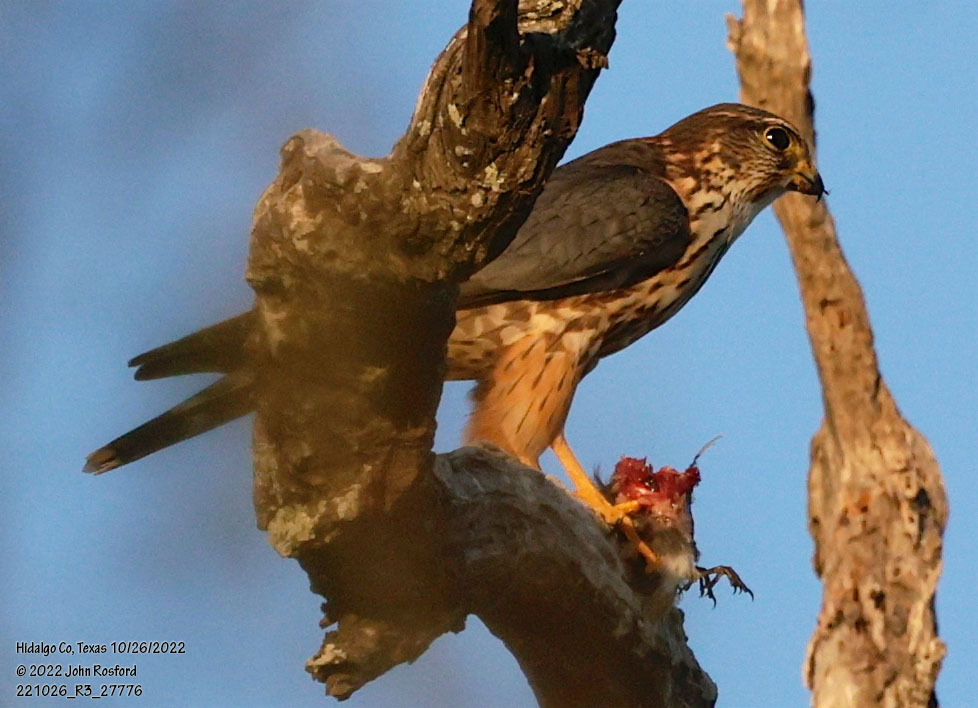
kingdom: Animalia
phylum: Chordata
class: Aves
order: Falconiformes
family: Falconidae
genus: Falco
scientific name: Falco columbarius
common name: Merlin
